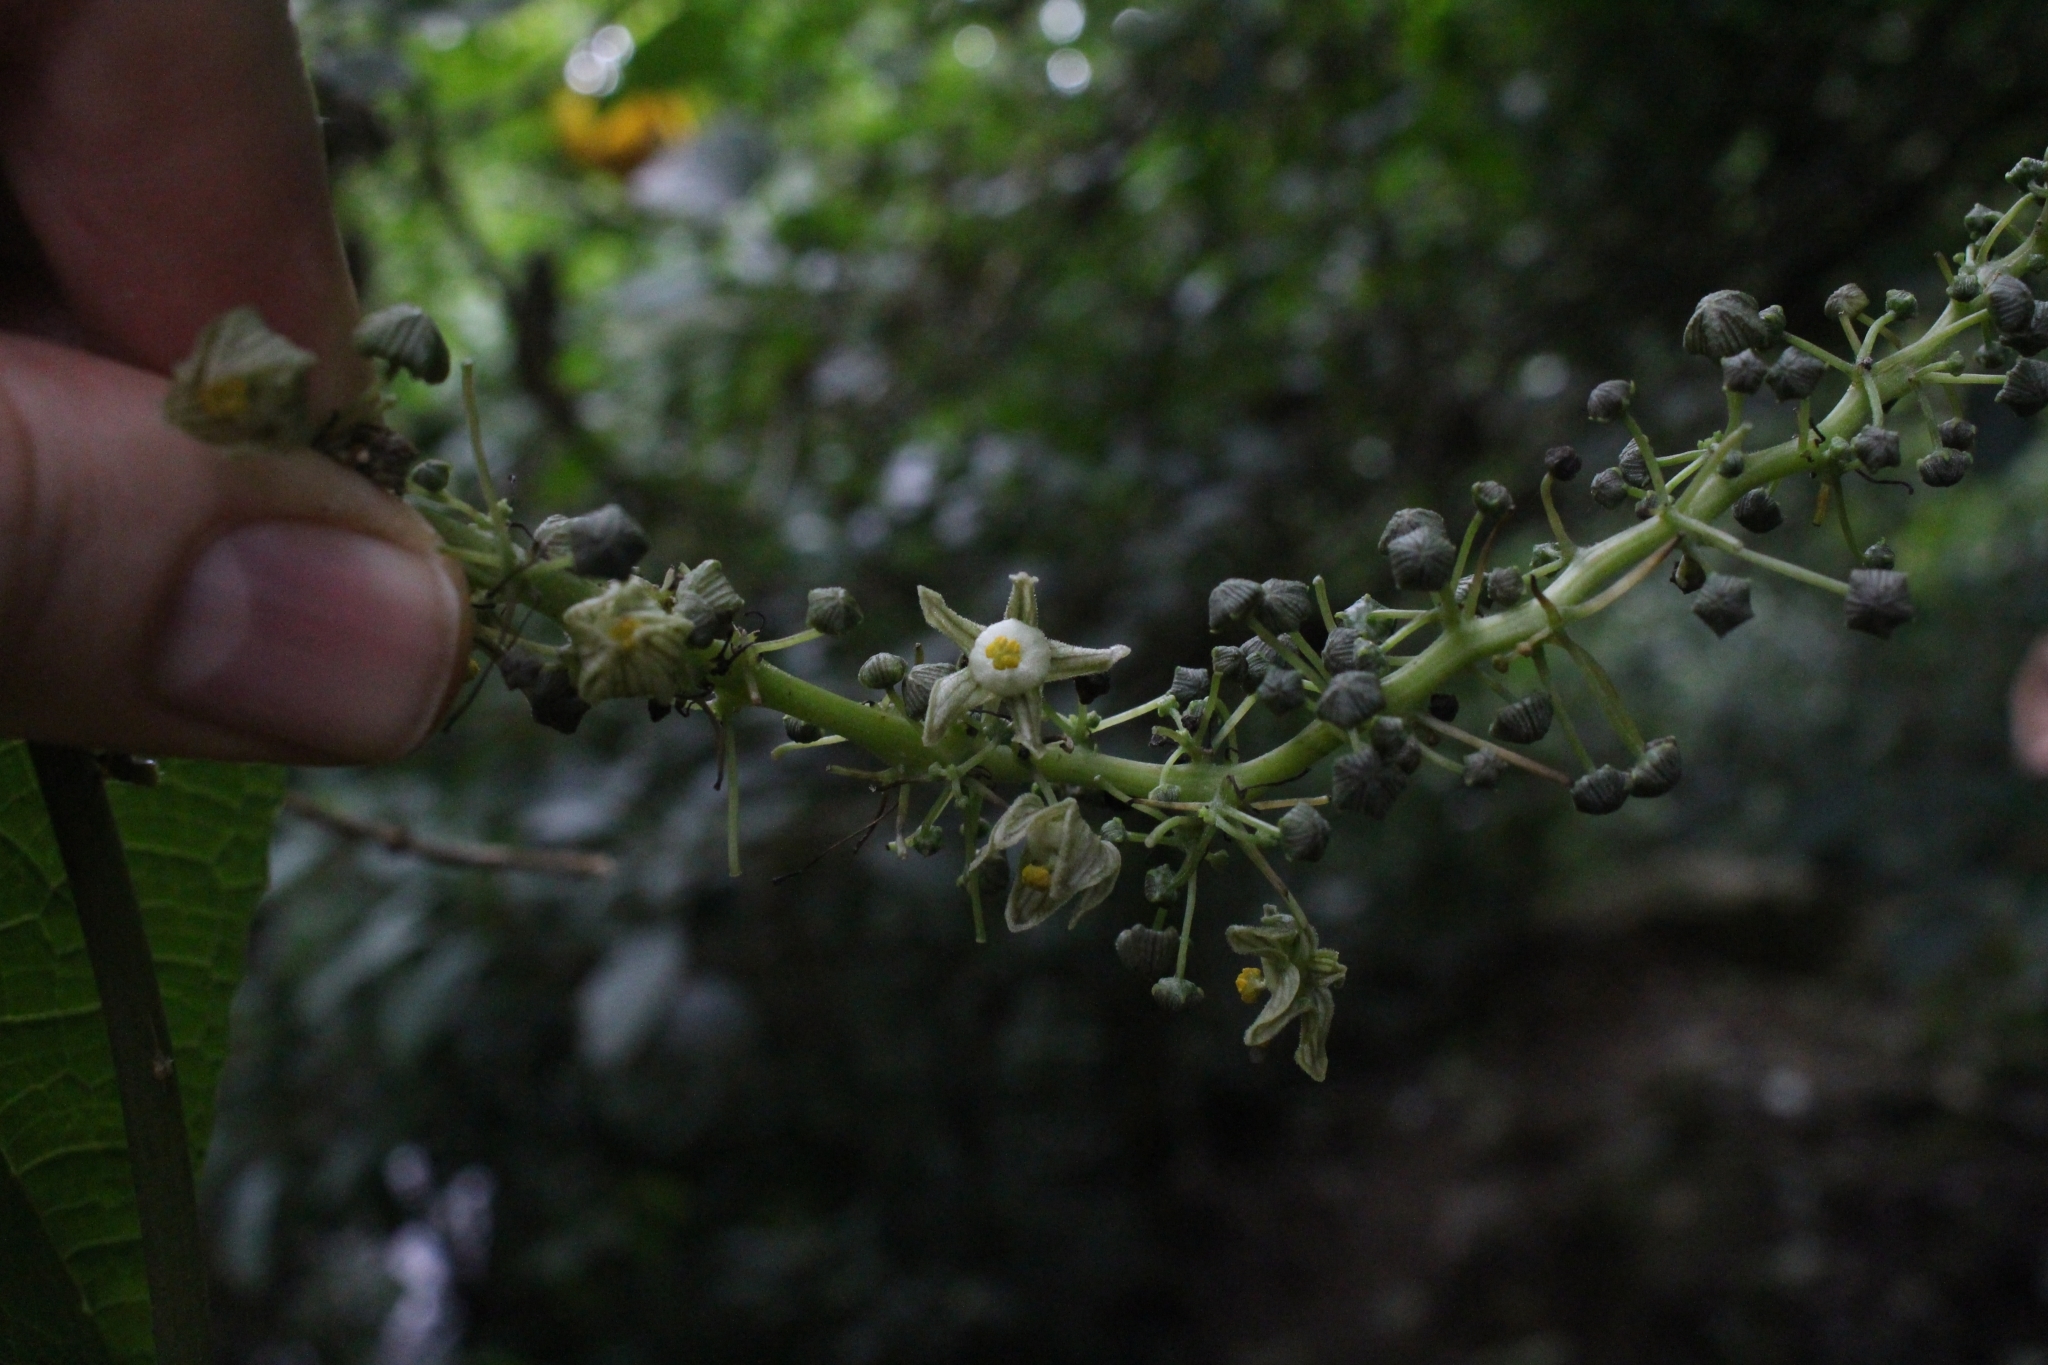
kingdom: Plantae
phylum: Tracheophyta
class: Magnoliopsida
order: Cucurbitales
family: Cucurbitaceae
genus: Frantzia
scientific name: Frantzia pittieri
